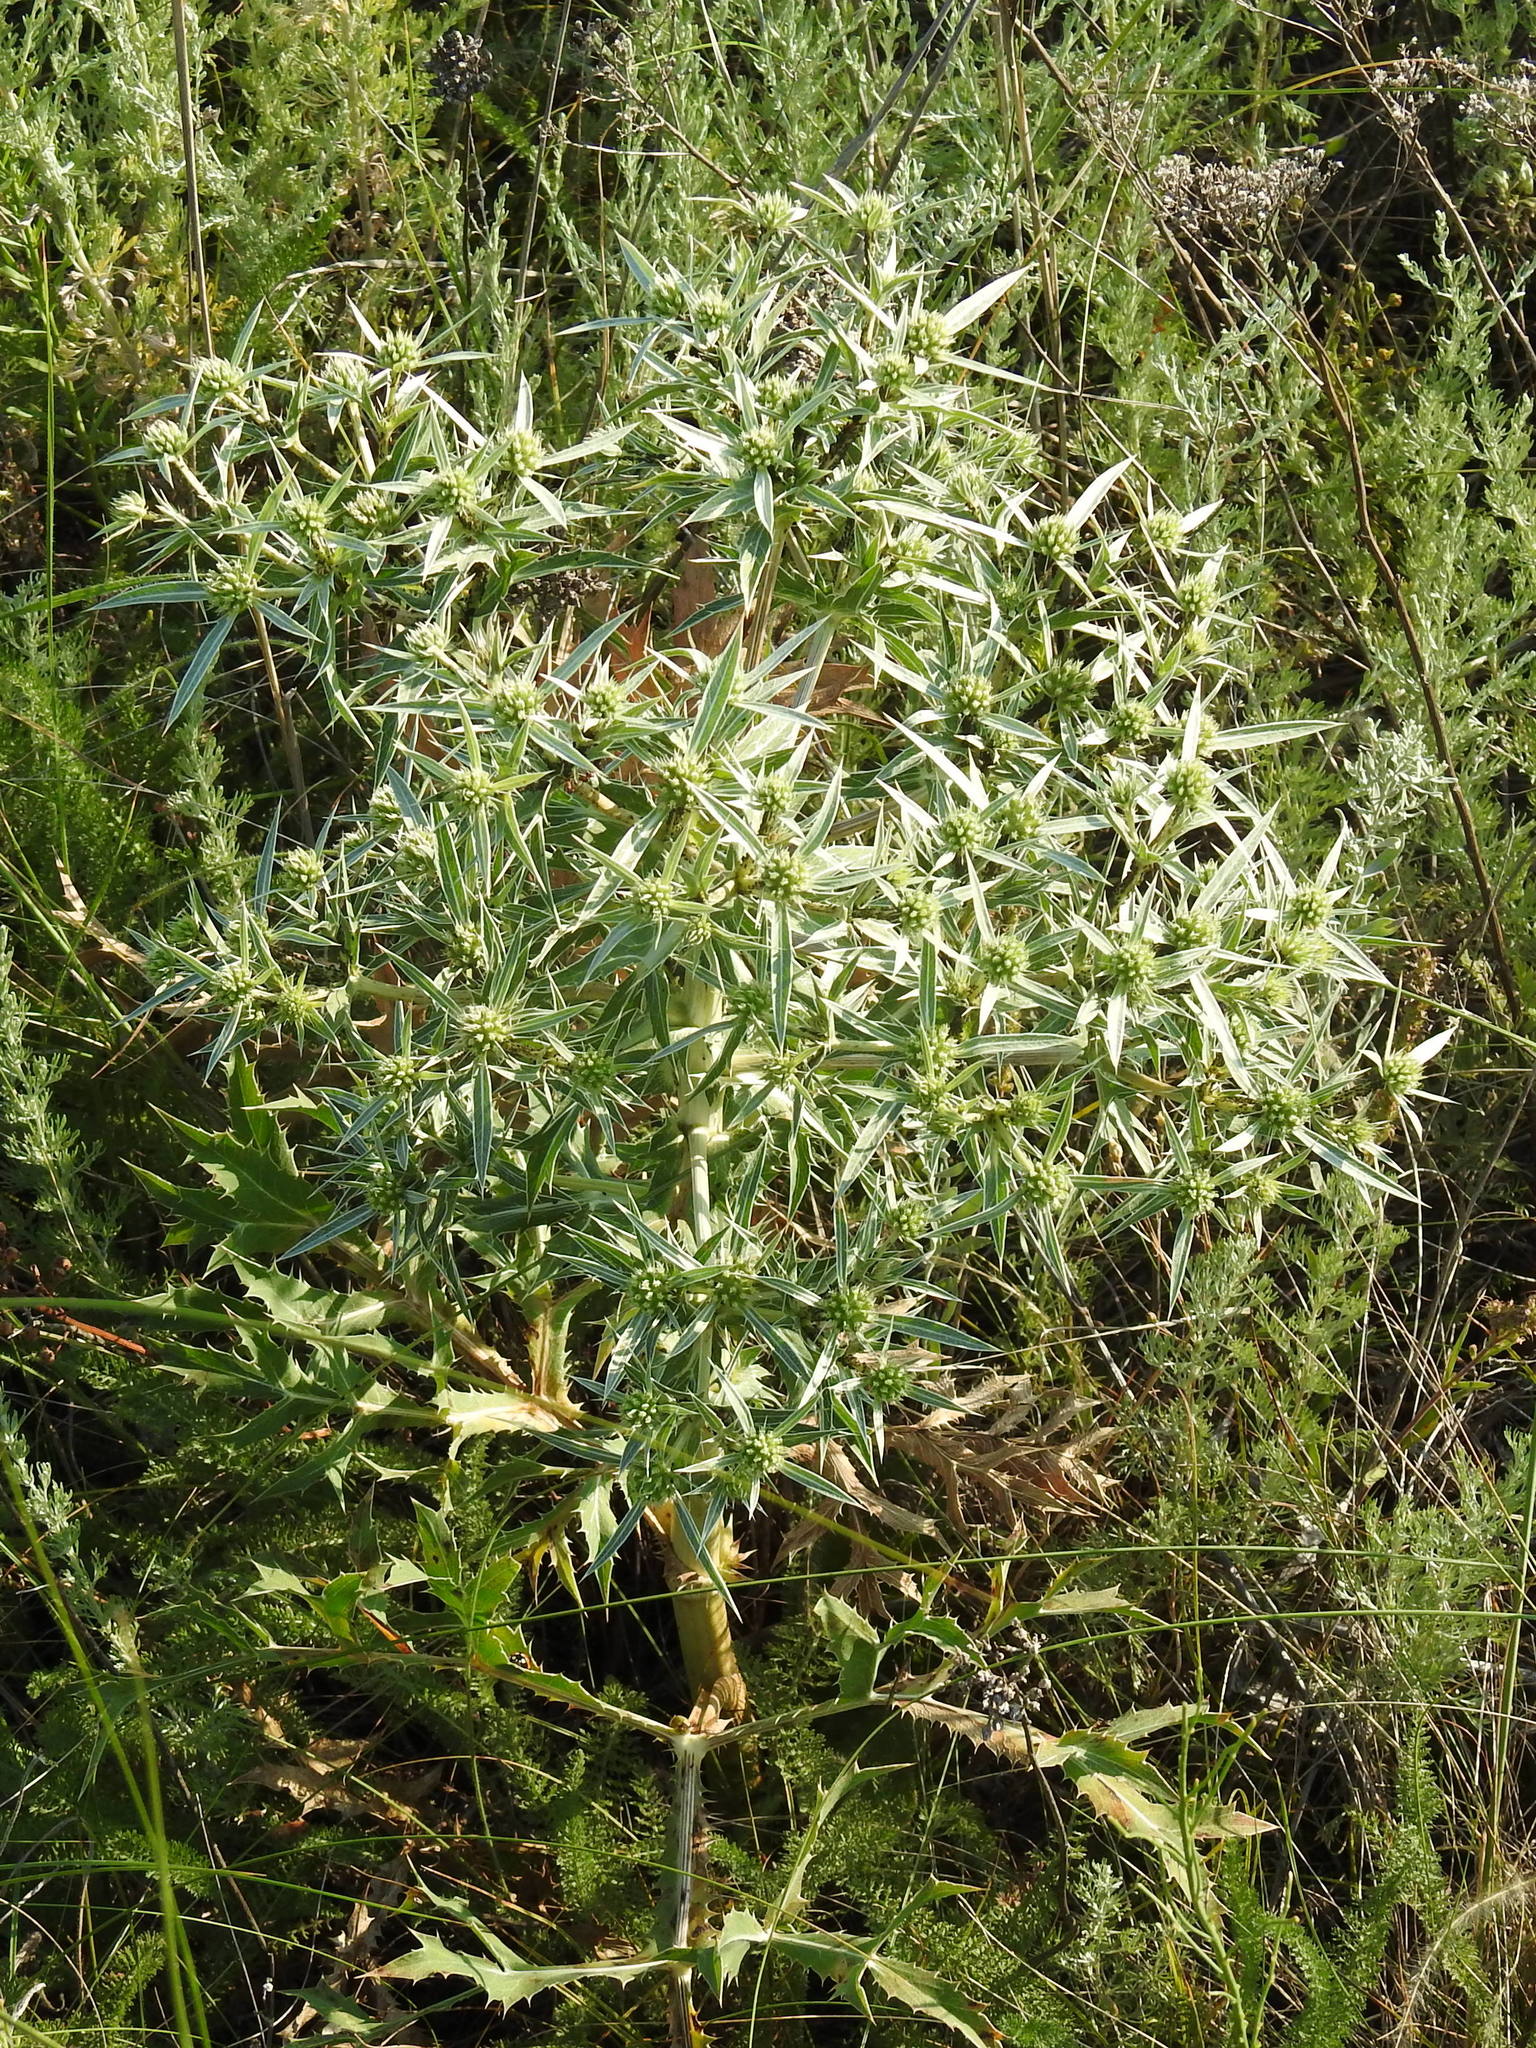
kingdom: Plantae
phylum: Tracheophyta
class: Magnoliopsida
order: Apiales
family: Apiaceae
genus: Eryngium
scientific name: Eryngium campestre
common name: Field eryngo
